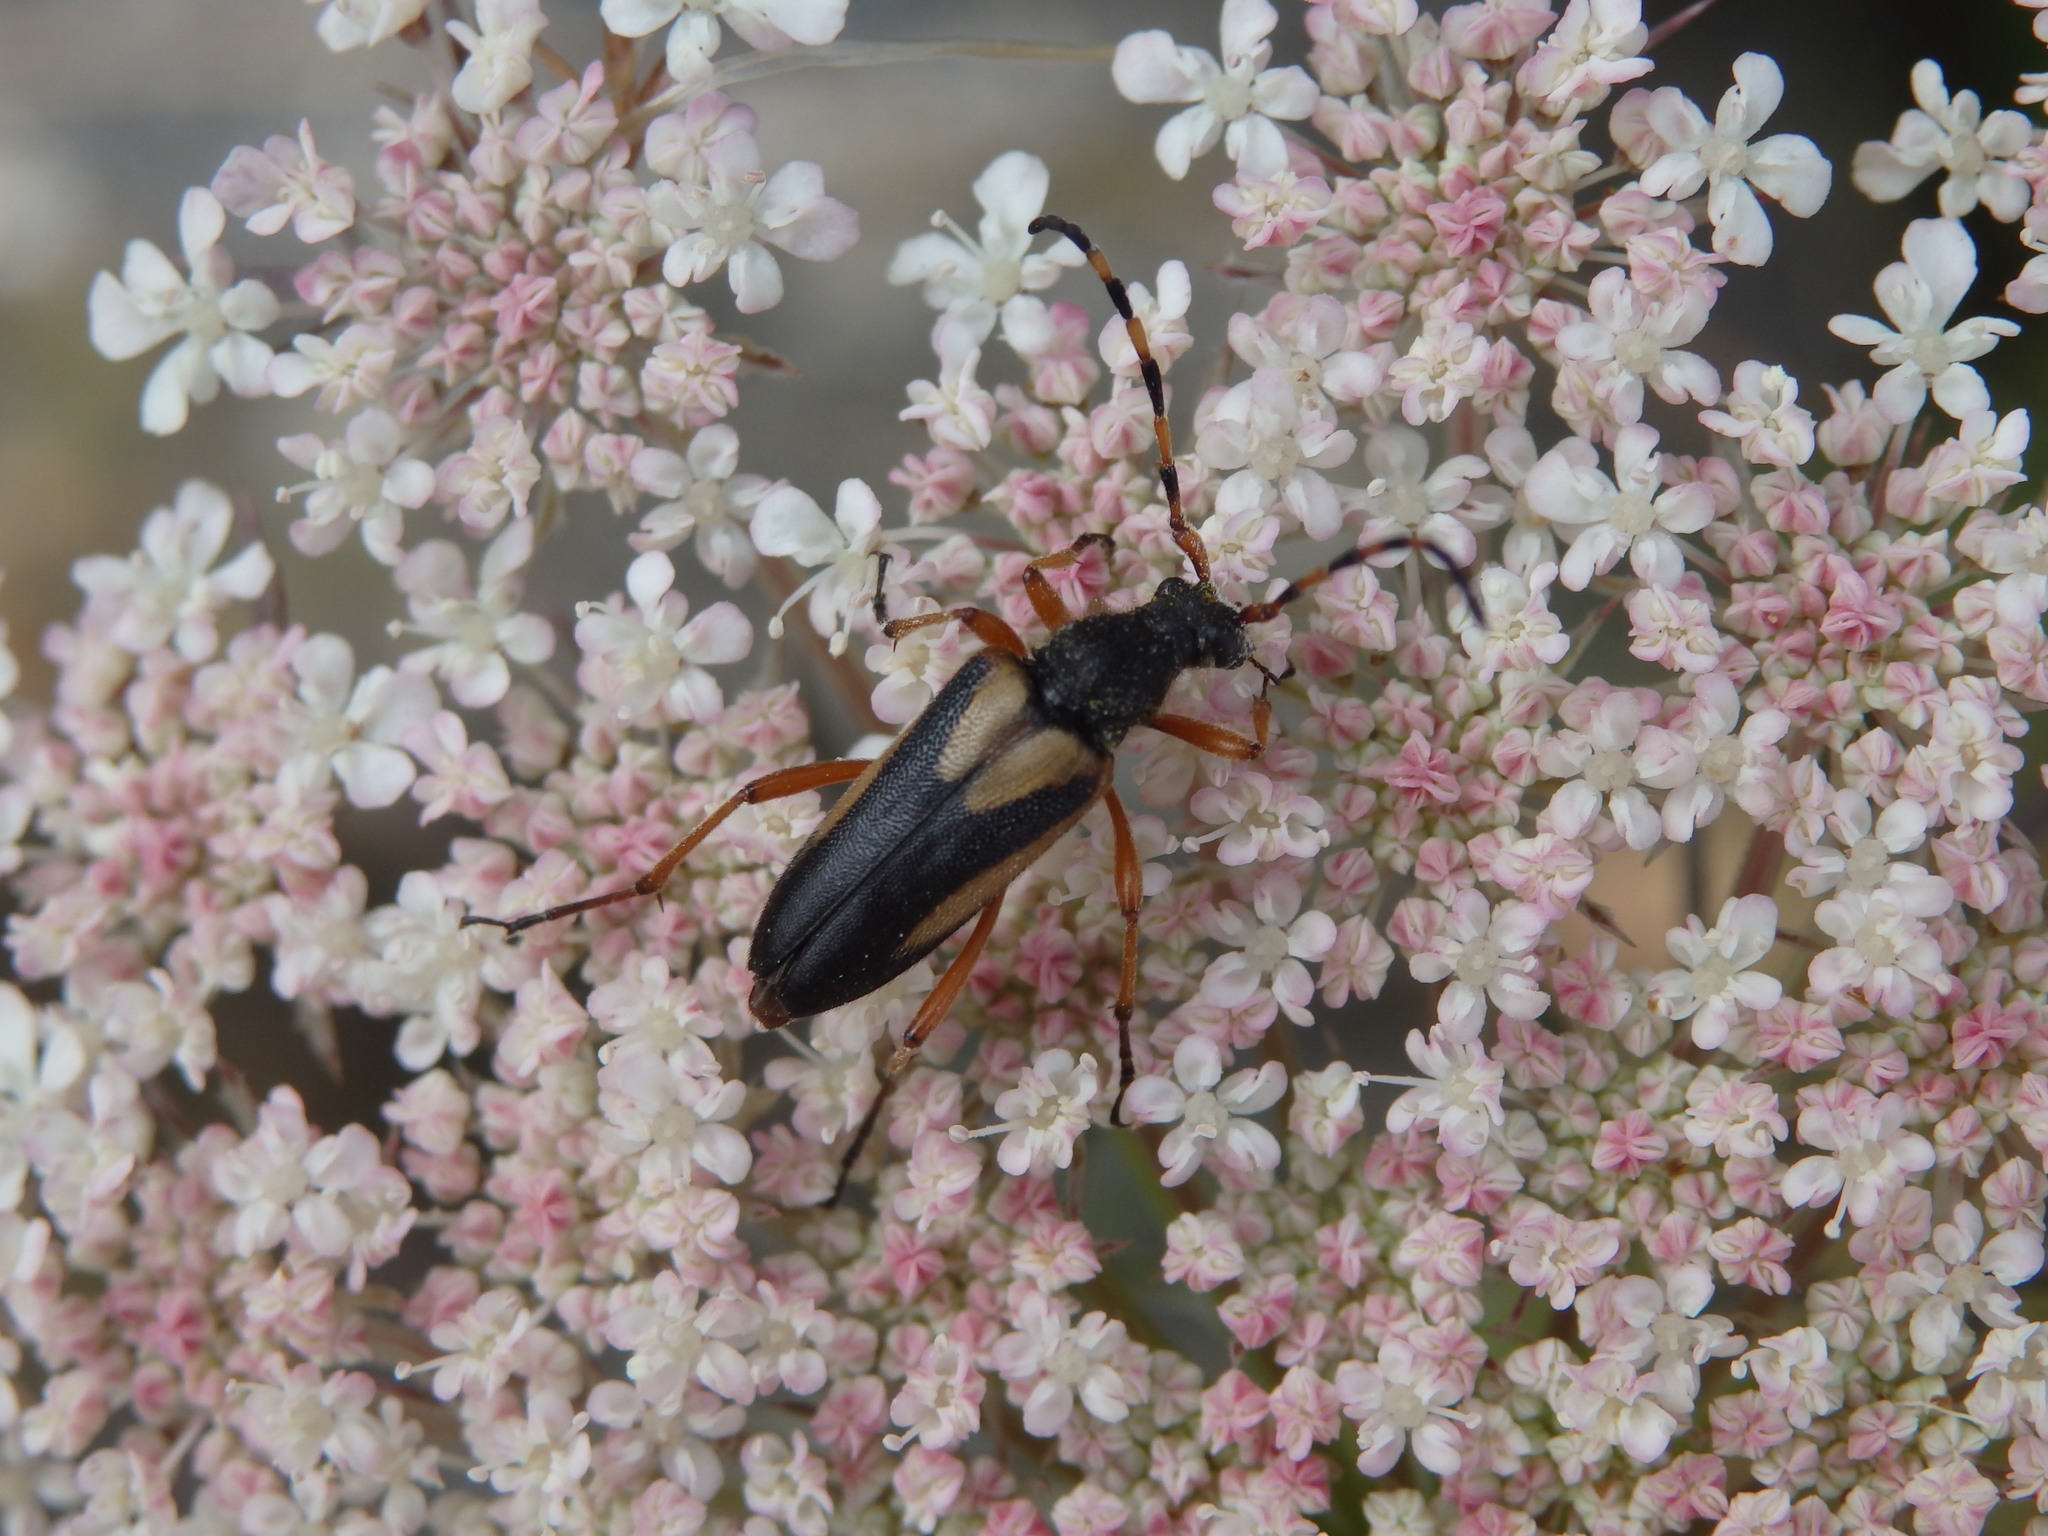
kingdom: Animalia
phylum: Arthropoda
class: Insecta
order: Coleoptera
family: Cerambycidae
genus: Stictoleptura
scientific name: Stictoleptura stragulata
